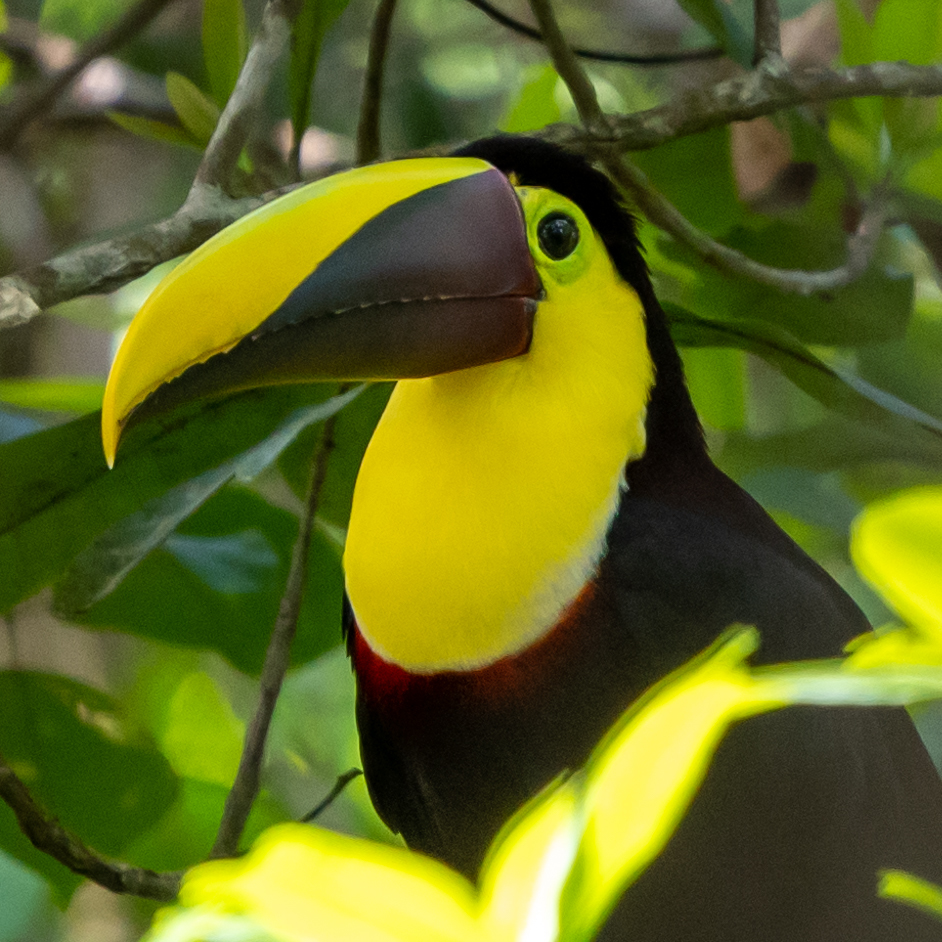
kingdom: Animalia
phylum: Chordata
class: Aves
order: Piciformes
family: Ramphastidae
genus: Ramphastos
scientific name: Ramphastos ambiguus
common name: Yellow-throated toucan
